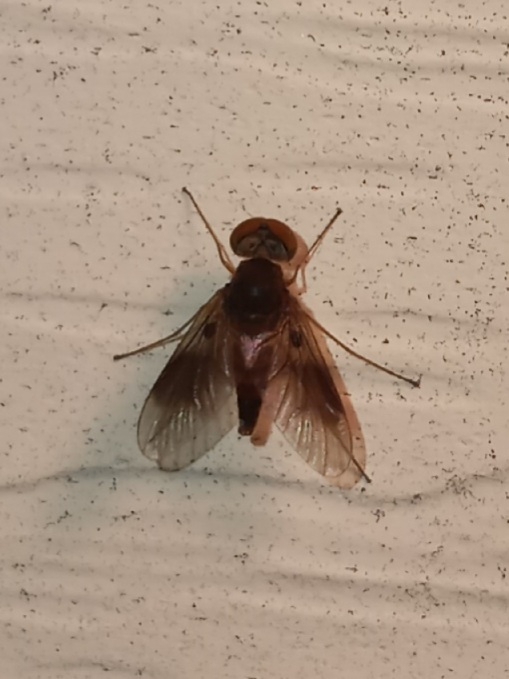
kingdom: Animalia
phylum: Arthropoda
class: Insecta
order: Diptera
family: Rhagionidae
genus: Chrysopilus
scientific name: Chrysopilus quadratus
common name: Quadrate snipe fly
